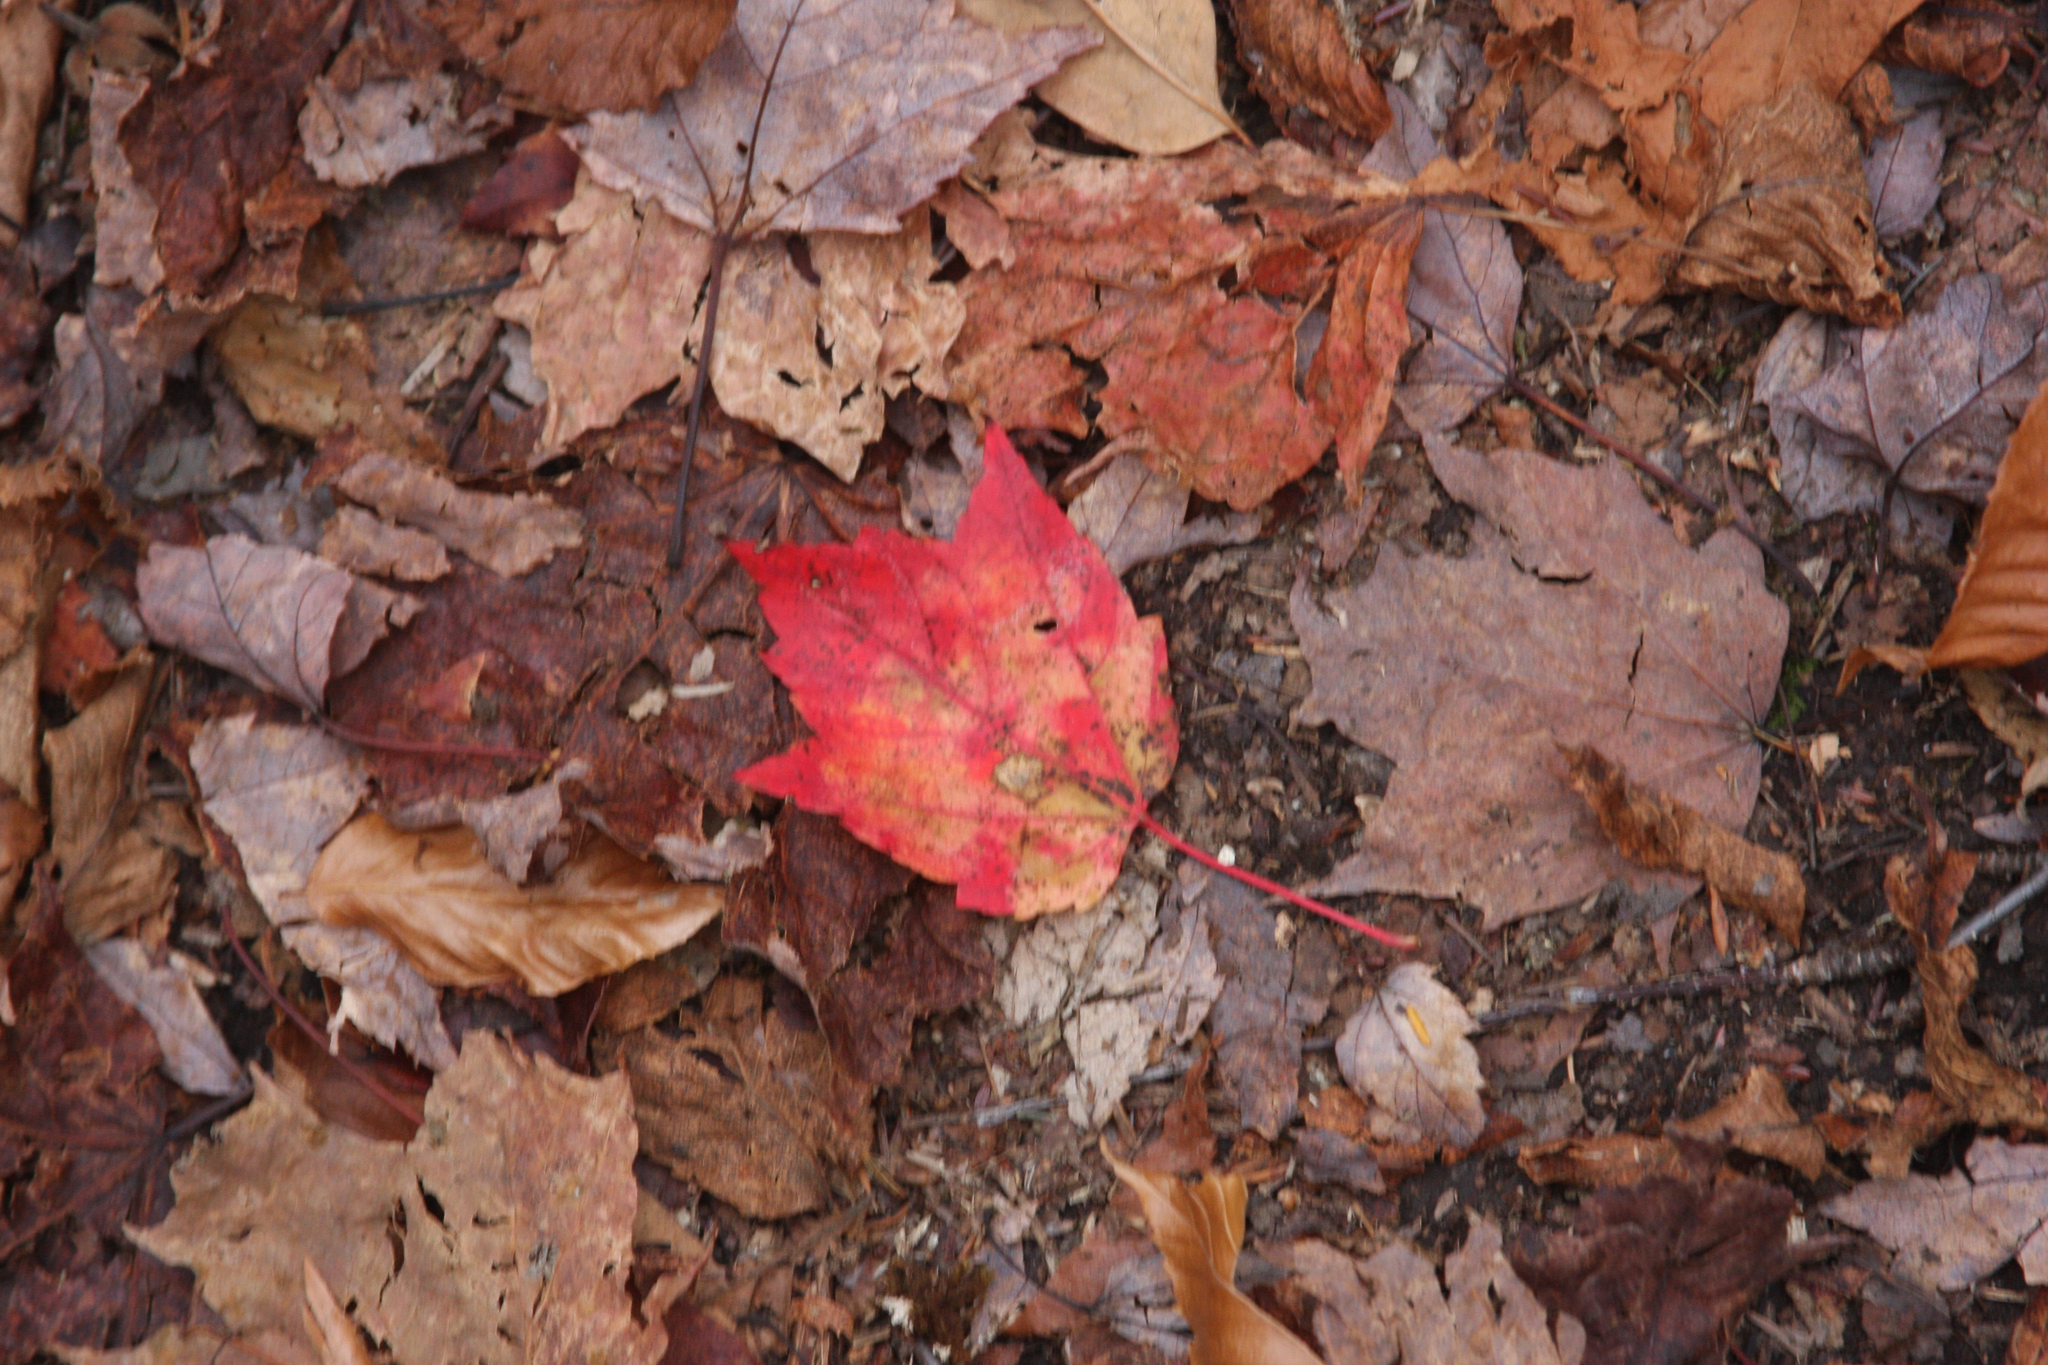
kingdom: Plantae
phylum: Tracheophyta
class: Magnoliopsida
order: Sapindales
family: Sapindaceae
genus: Acer
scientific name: Acer rubrum
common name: Red maple
